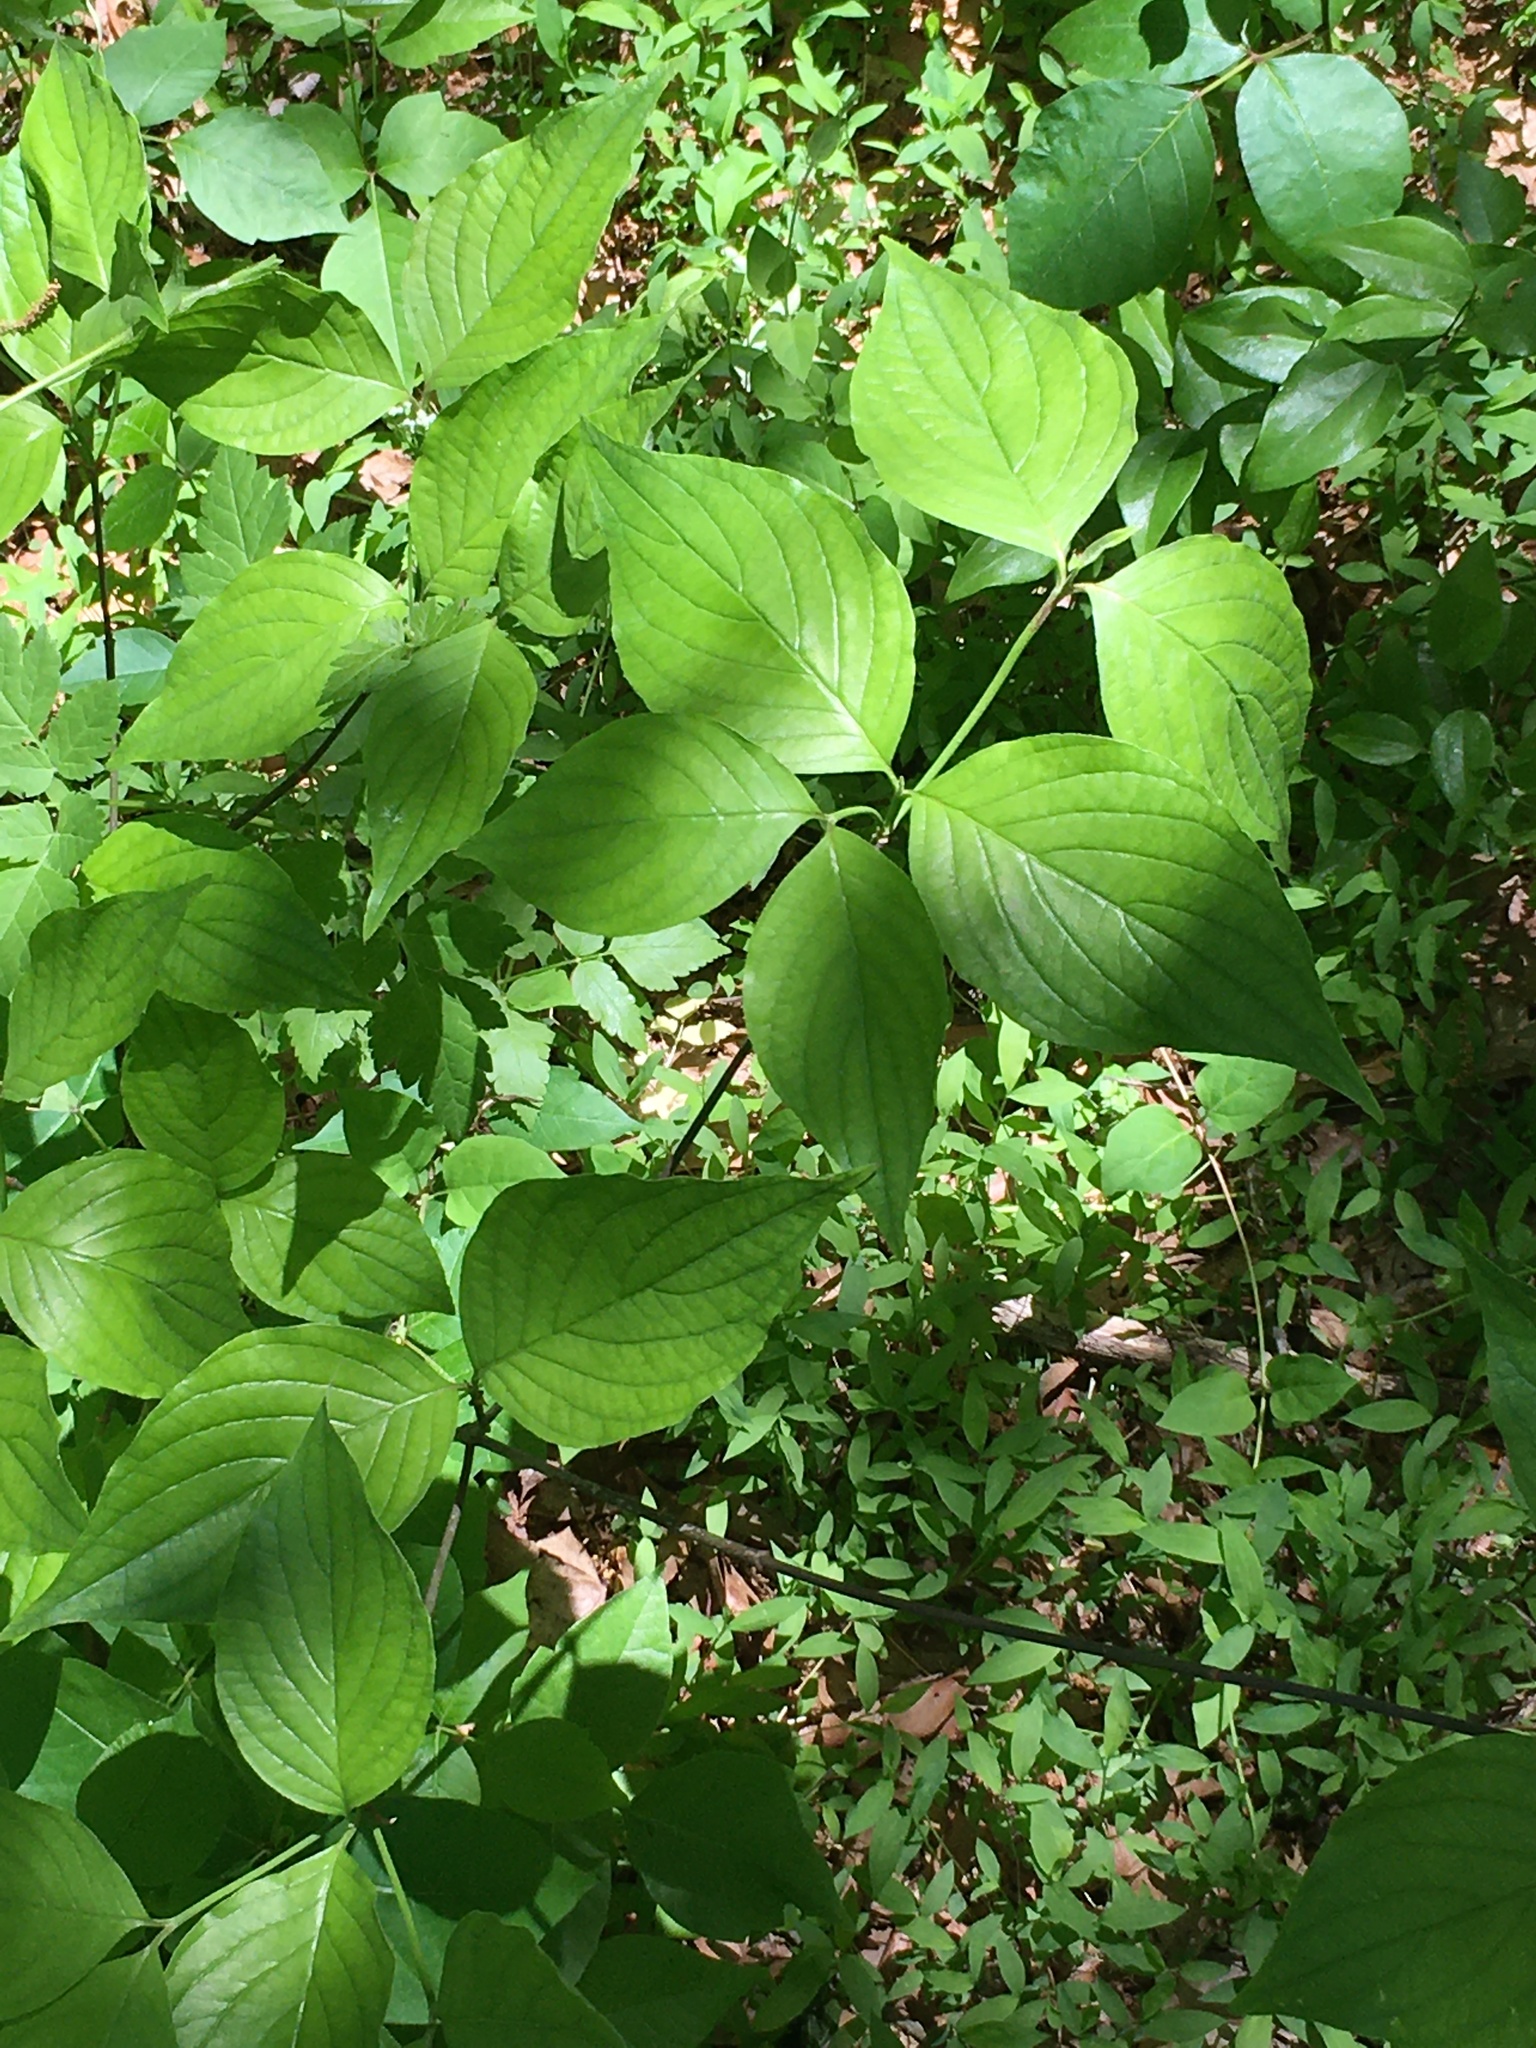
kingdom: Plantae
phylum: Tracheophyta
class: Magnoliopsida
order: Cornales
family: Cornaceae
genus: Cornus
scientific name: Cornus florida
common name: Flowering dogwood
